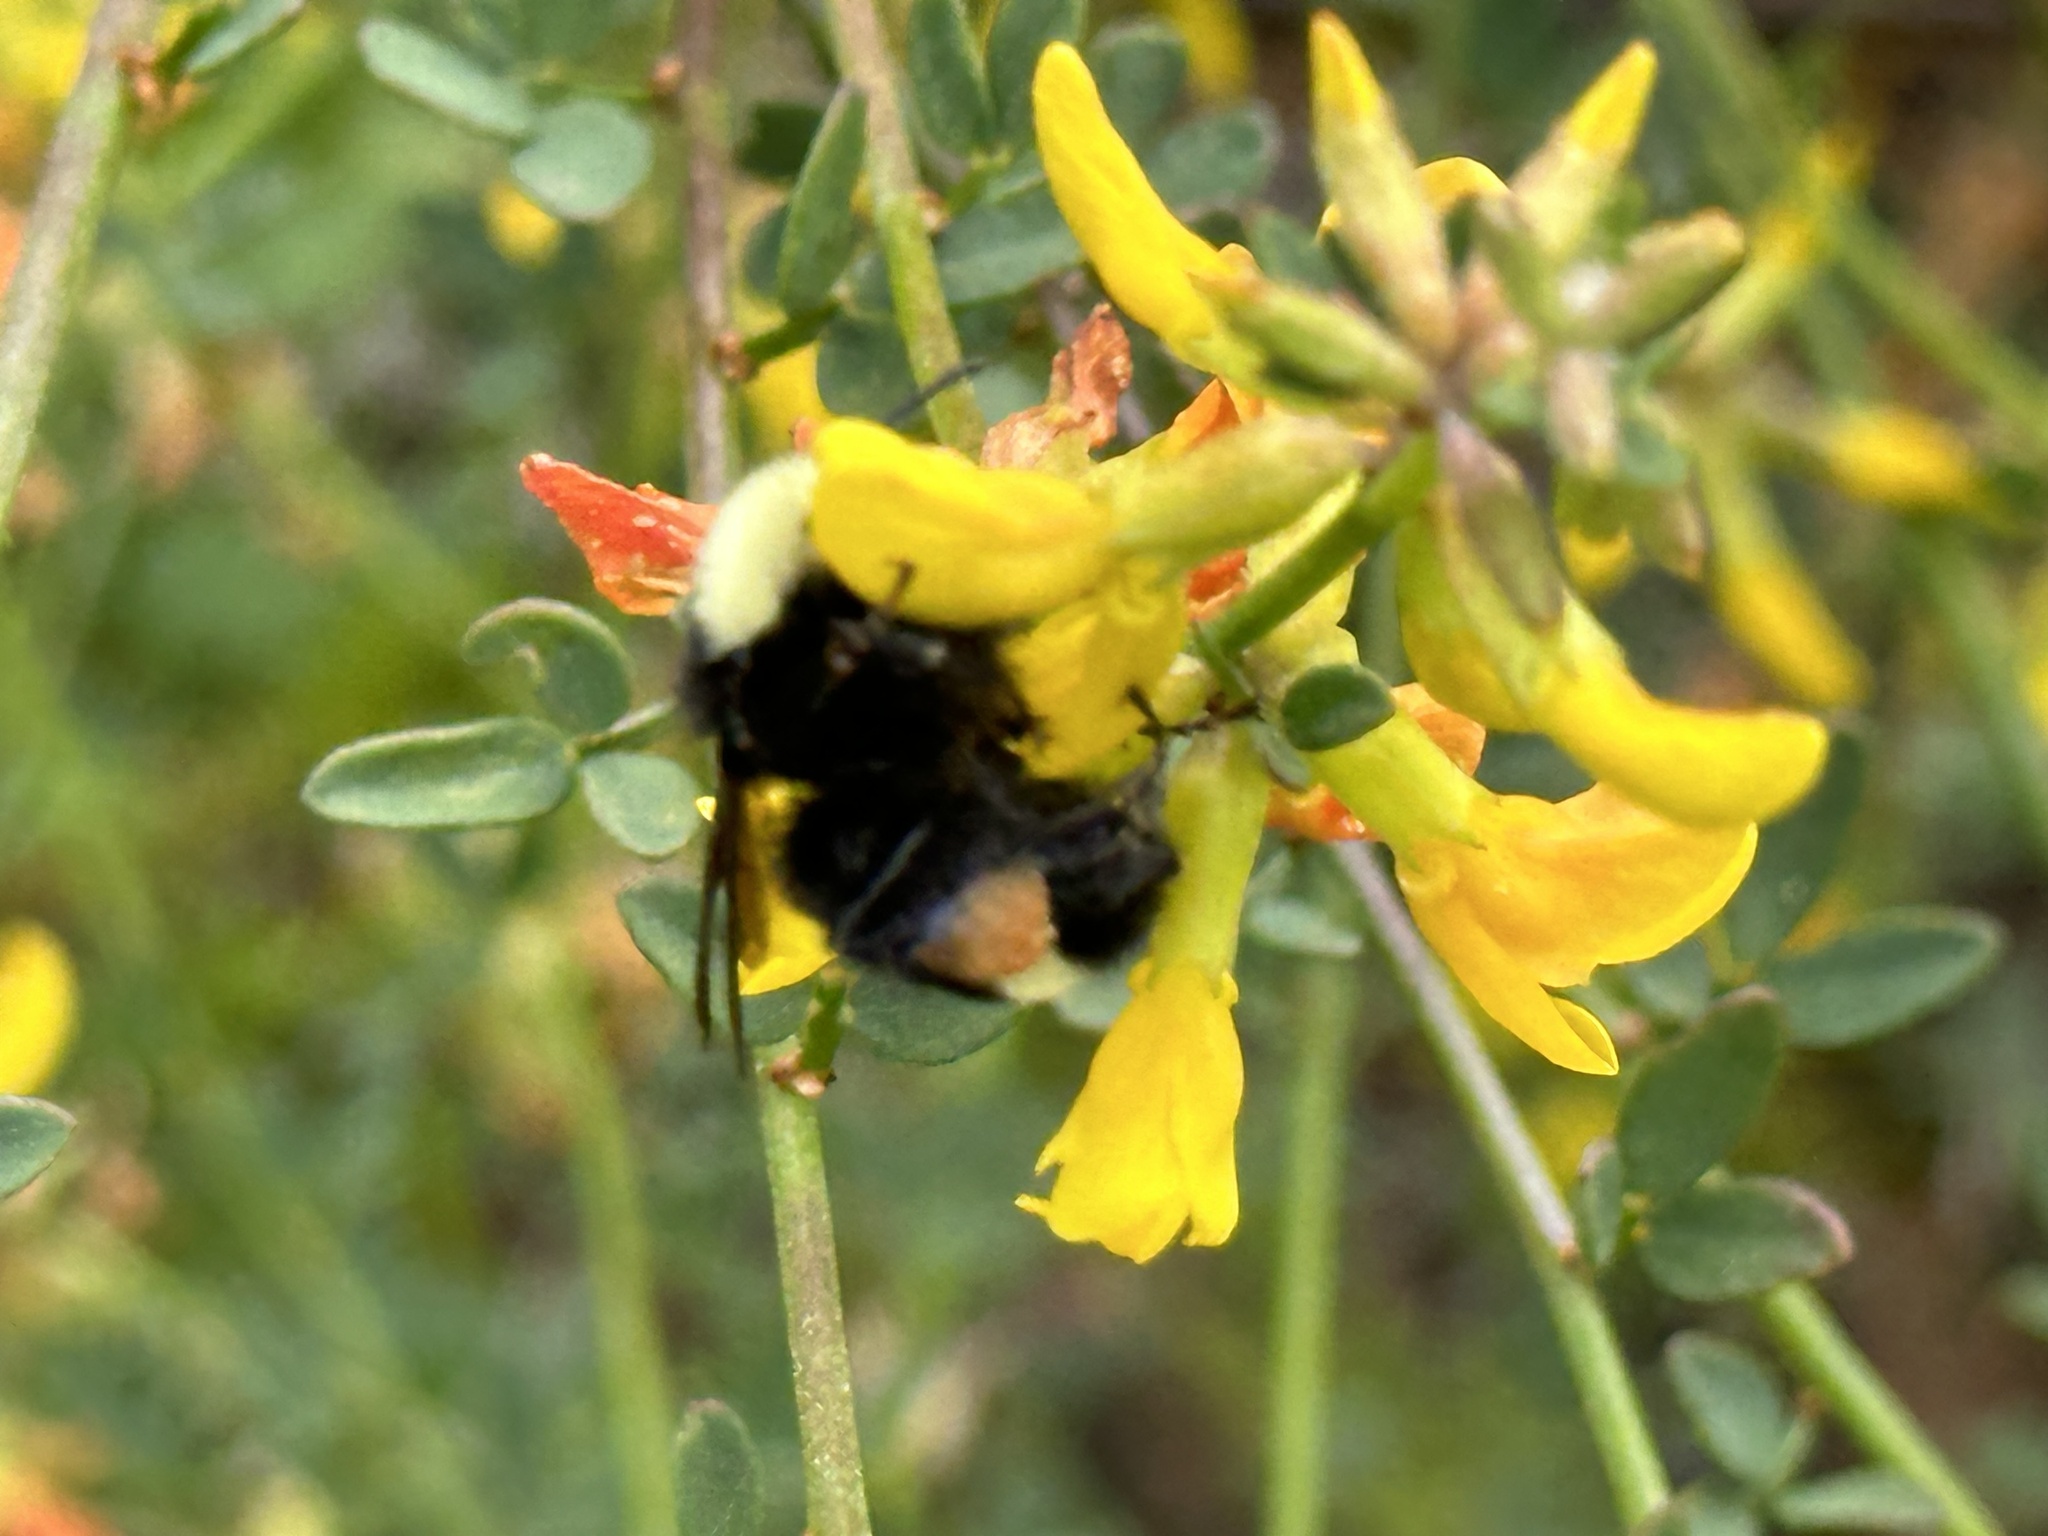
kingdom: Animalia
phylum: Arthropoda
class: Insecta
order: Hymenoptera
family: Apidae
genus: Bombus
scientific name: Bombus vosnesenskii
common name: Vosnesensky bumble bee
